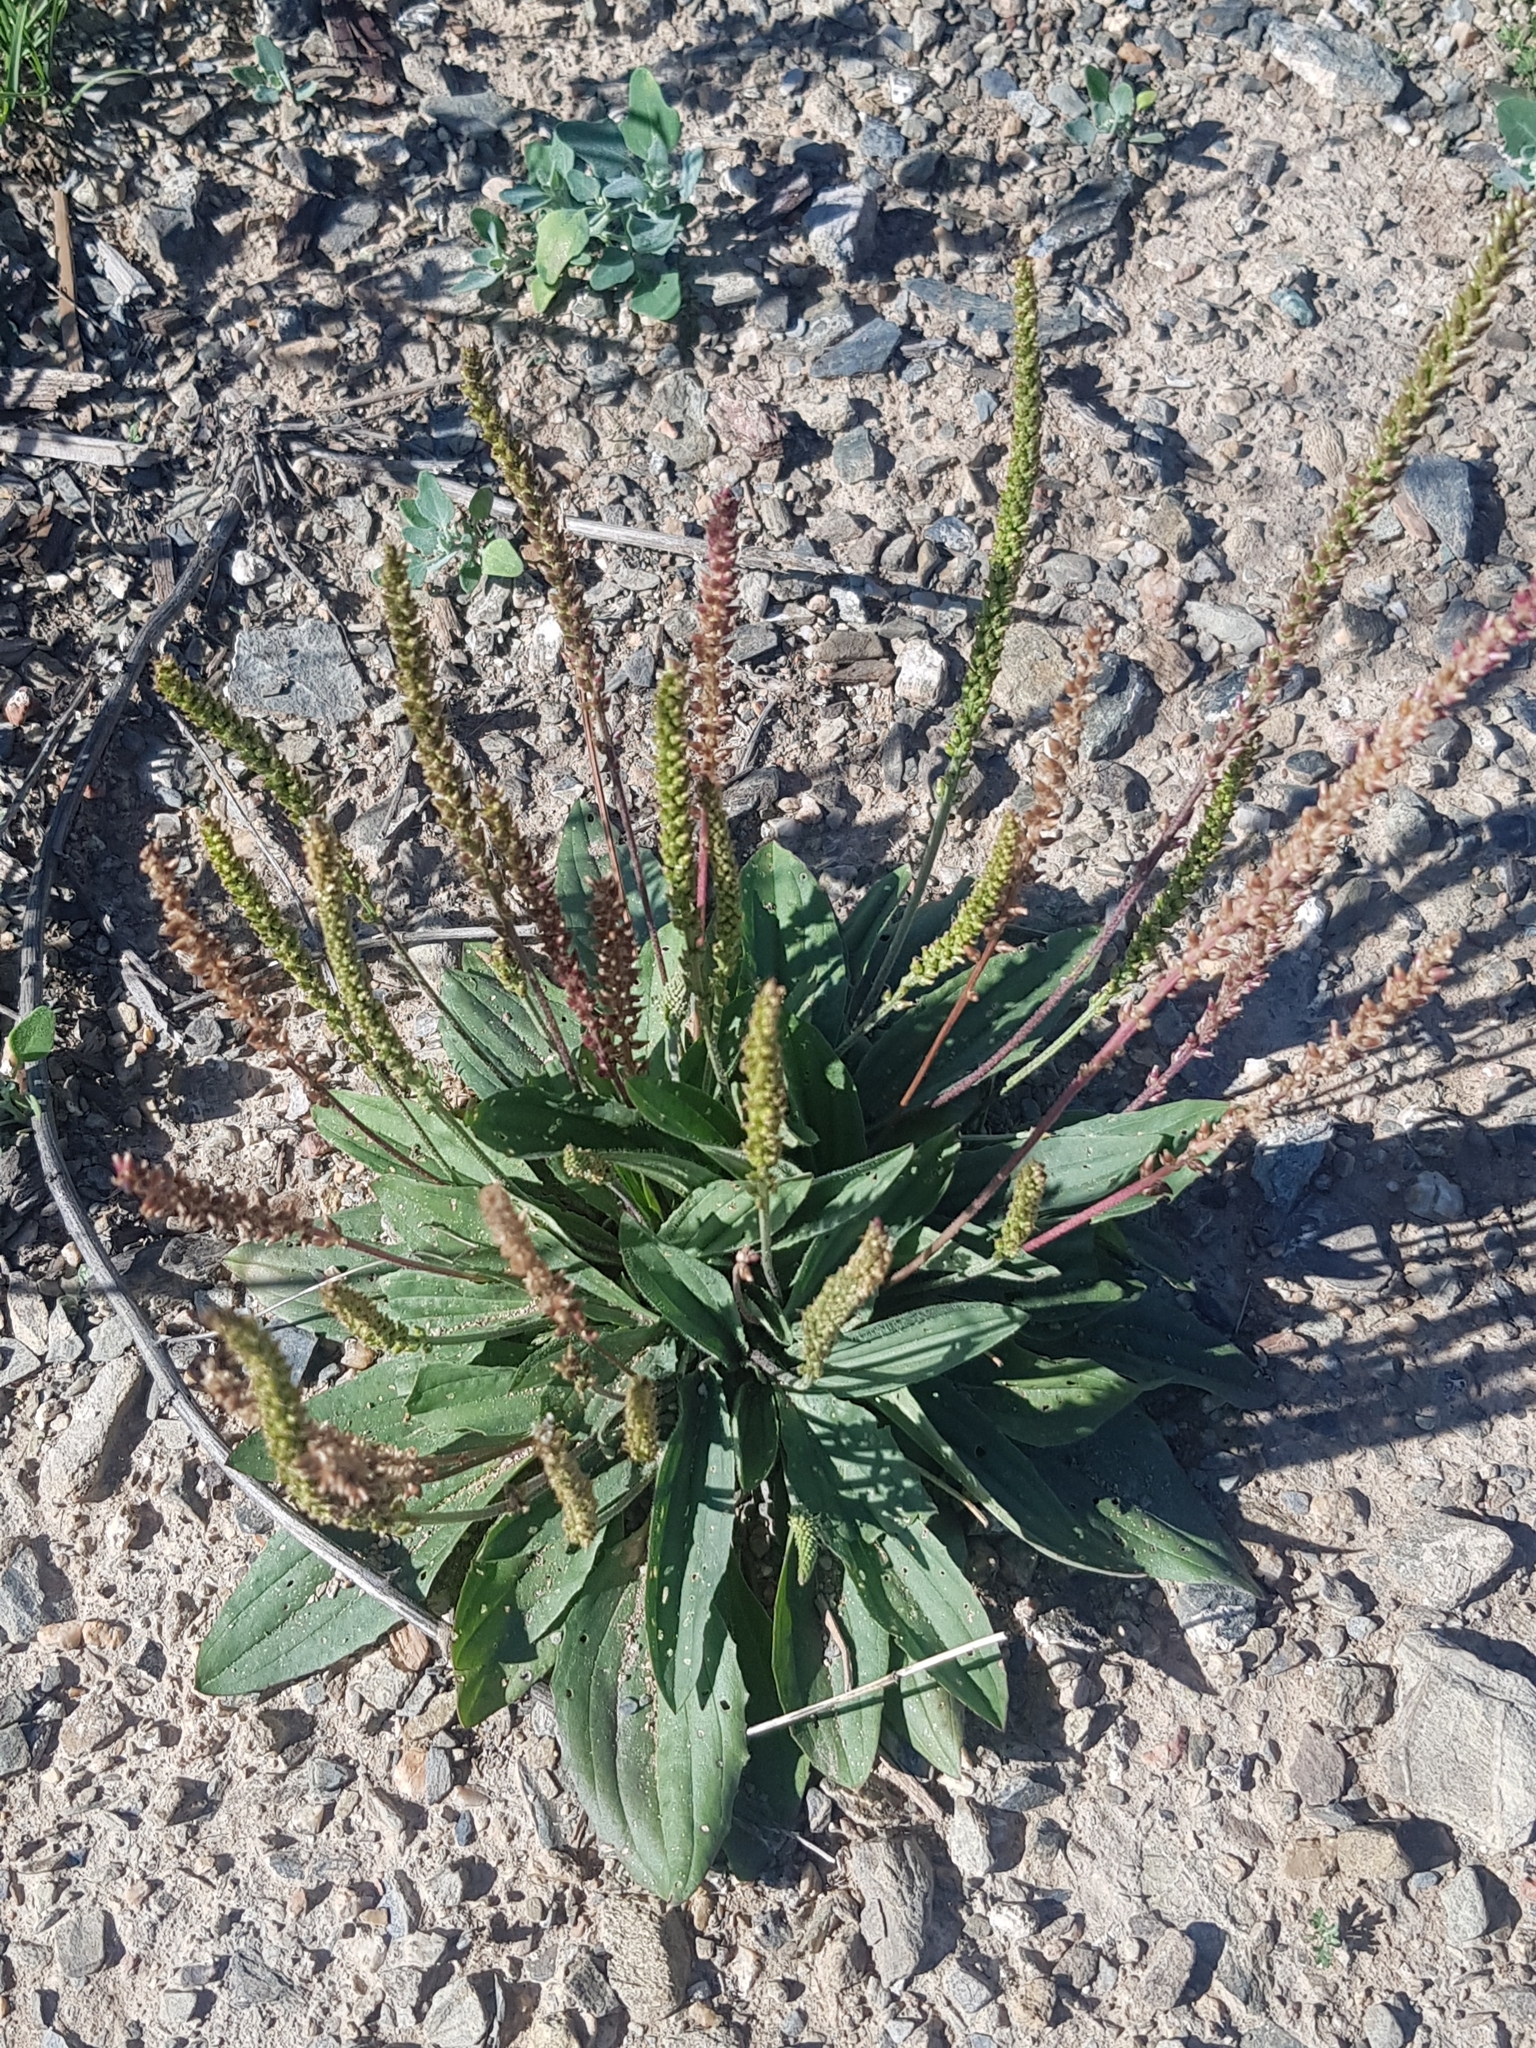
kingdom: Plantae
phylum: Tracheophyta
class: Magnoliopsida
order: Lamiales
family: Plantaginaceae
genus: Plantago
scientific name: Plantago depressa
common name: Depressed plantain
